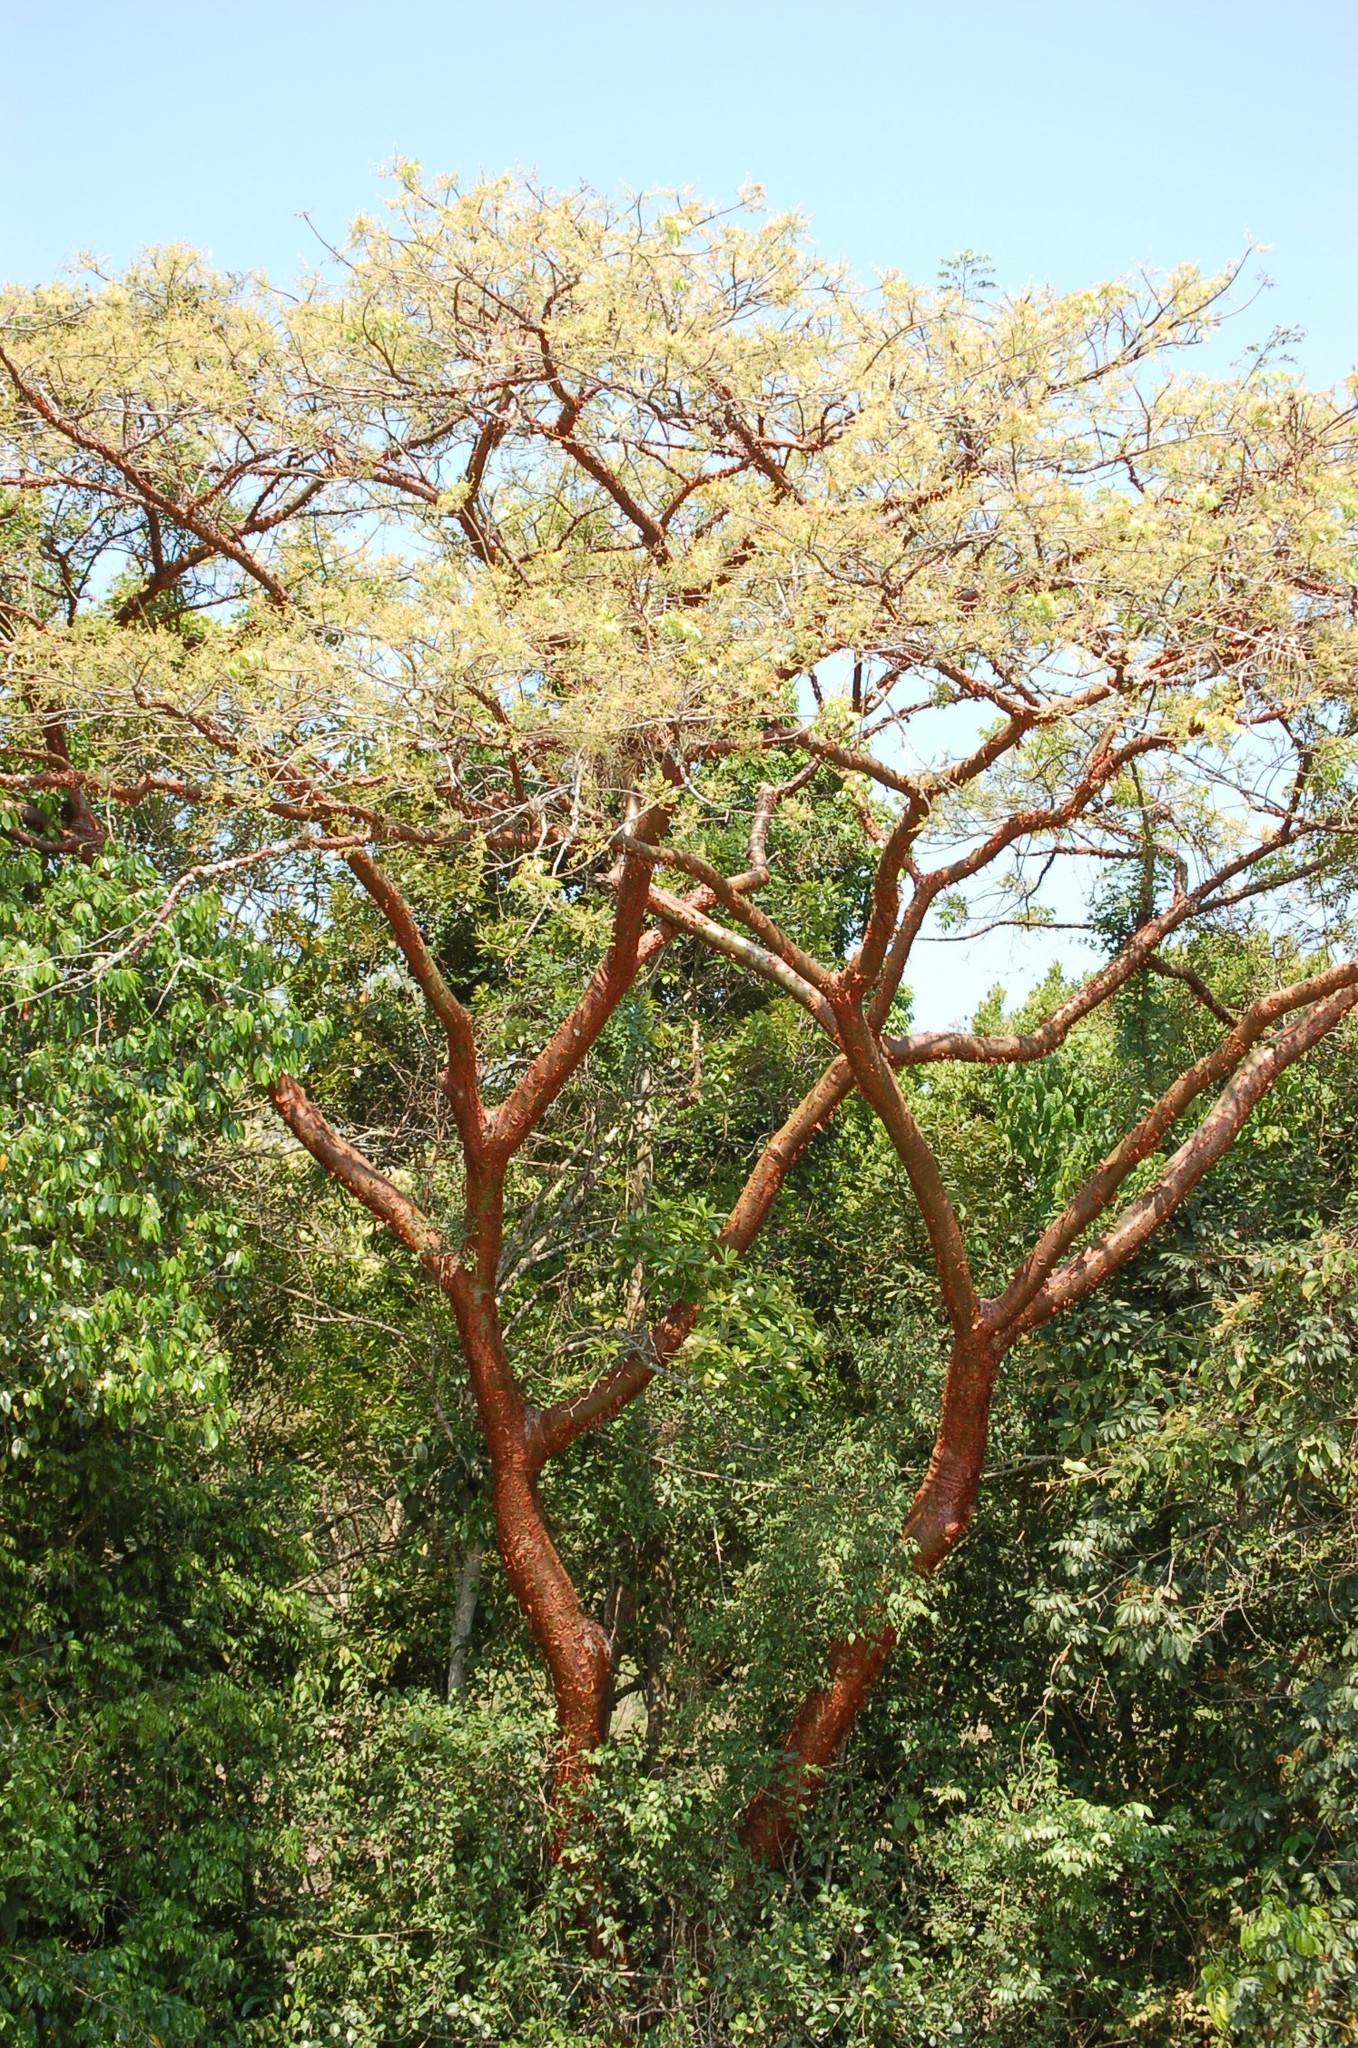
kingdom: Plantae
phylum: Tracheophyta
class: Magnoliopsida
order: Sapindales
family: Burseraceae
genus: Bursera
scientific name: Bursera simaruba
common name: Turpentine tree
